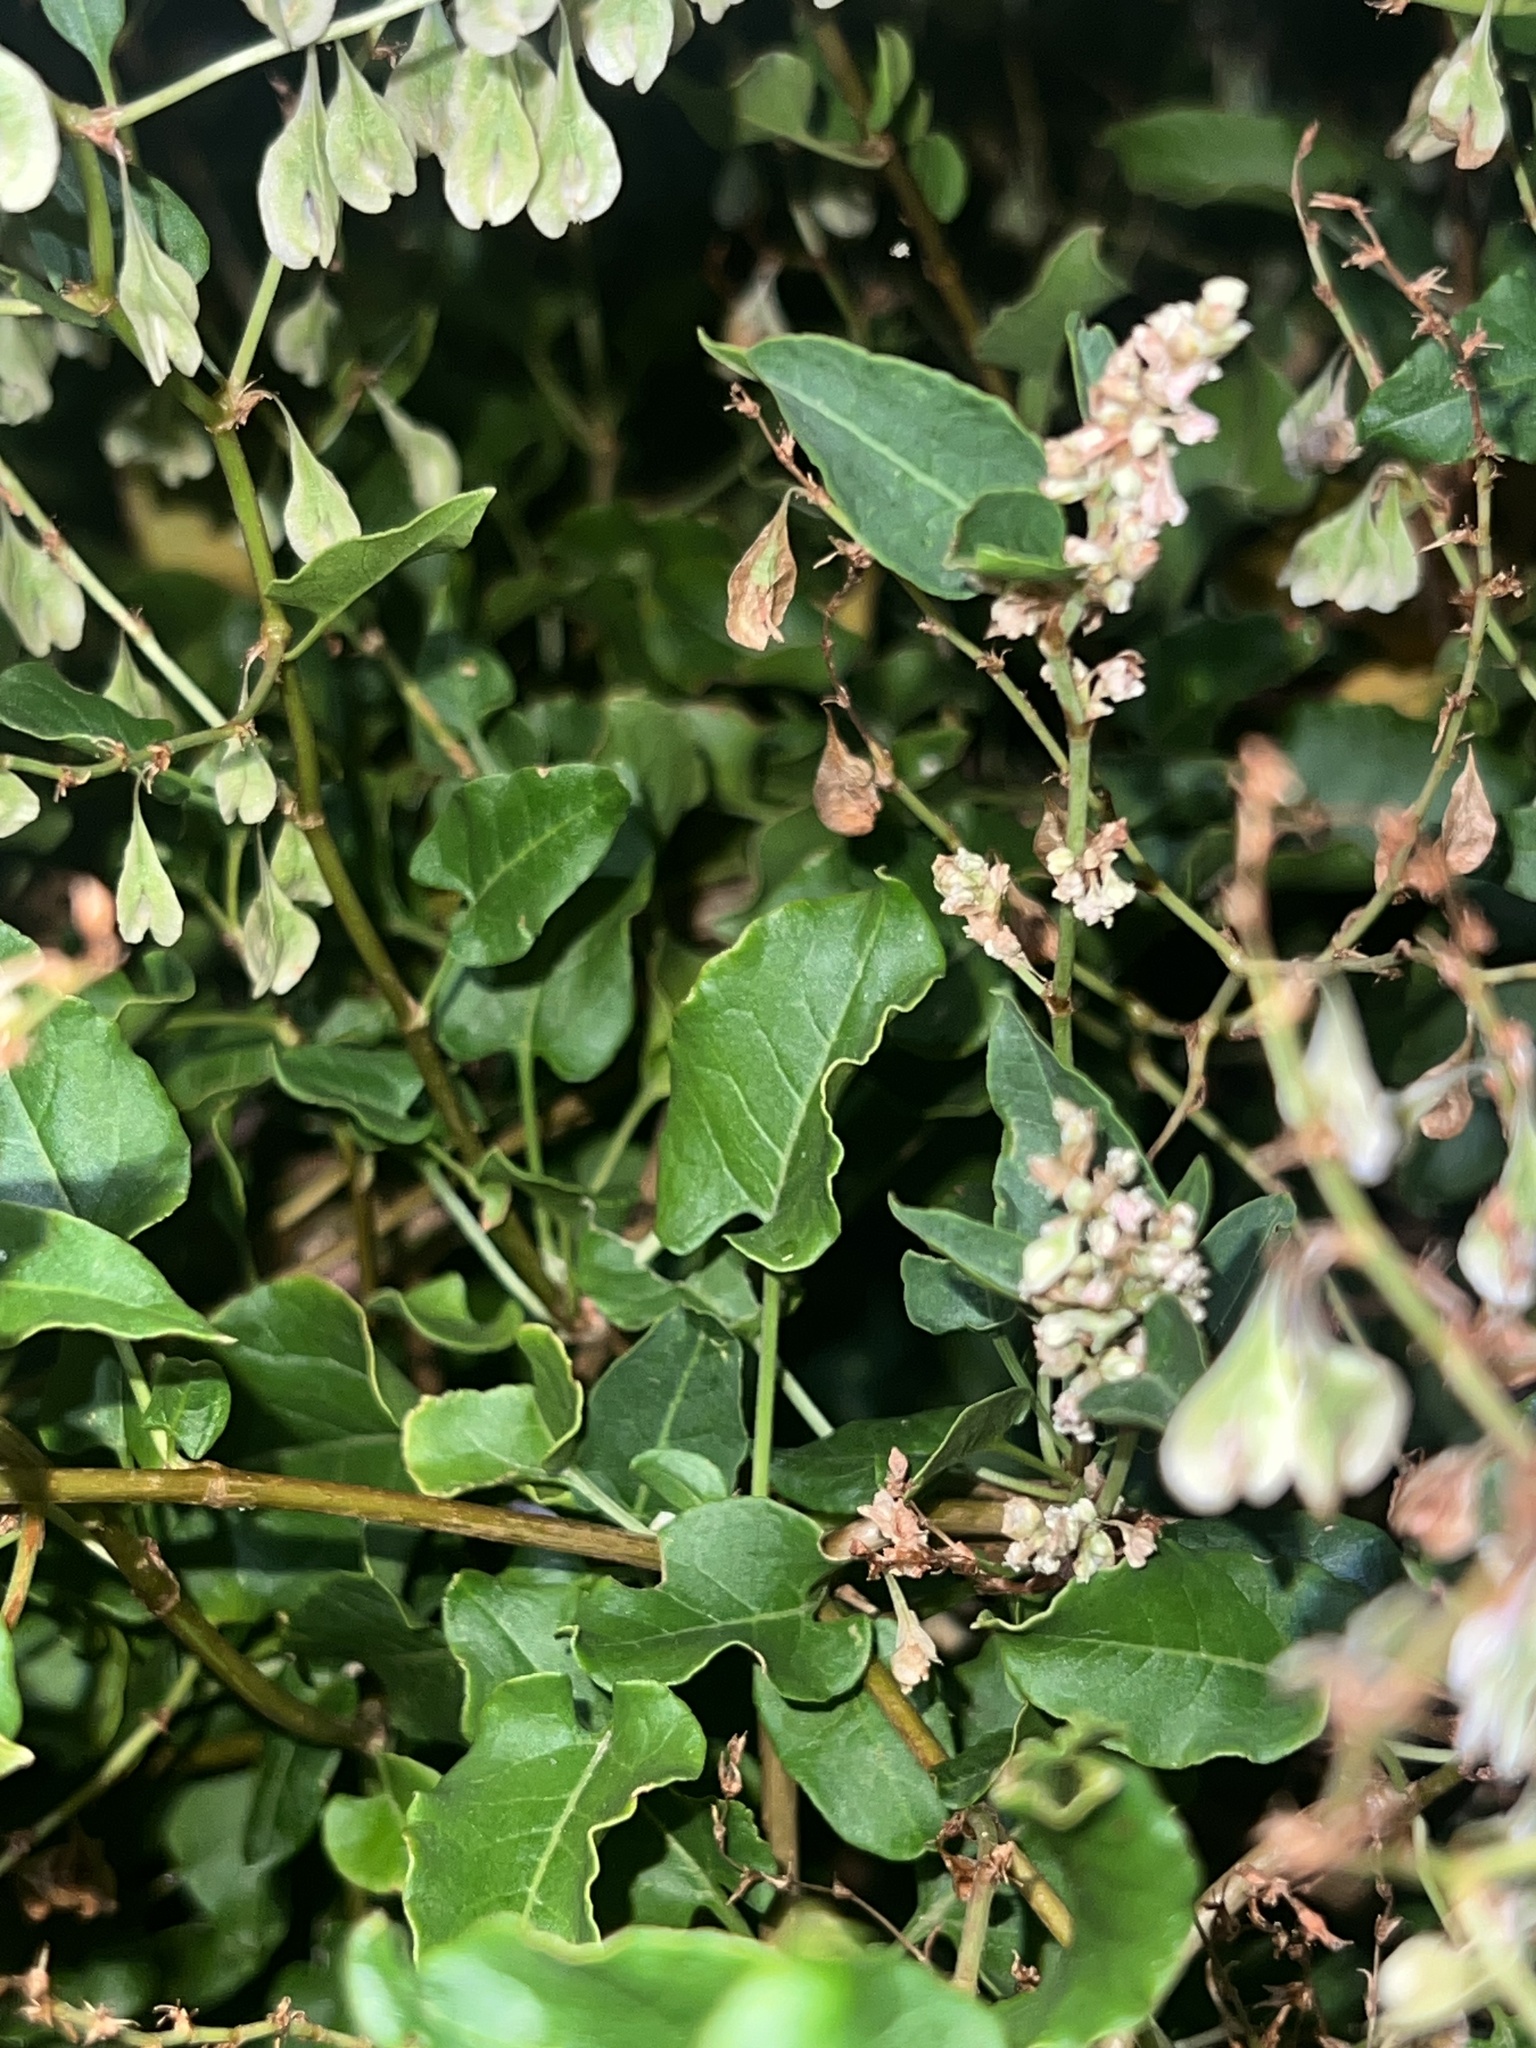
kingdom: Plantae
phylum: Tracheophyta
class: Magnoliopsida
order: Caryophyllales
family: Polygonaceae
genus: Fallopia
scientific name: Fallopia baldschuanica
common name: Russian-vine
